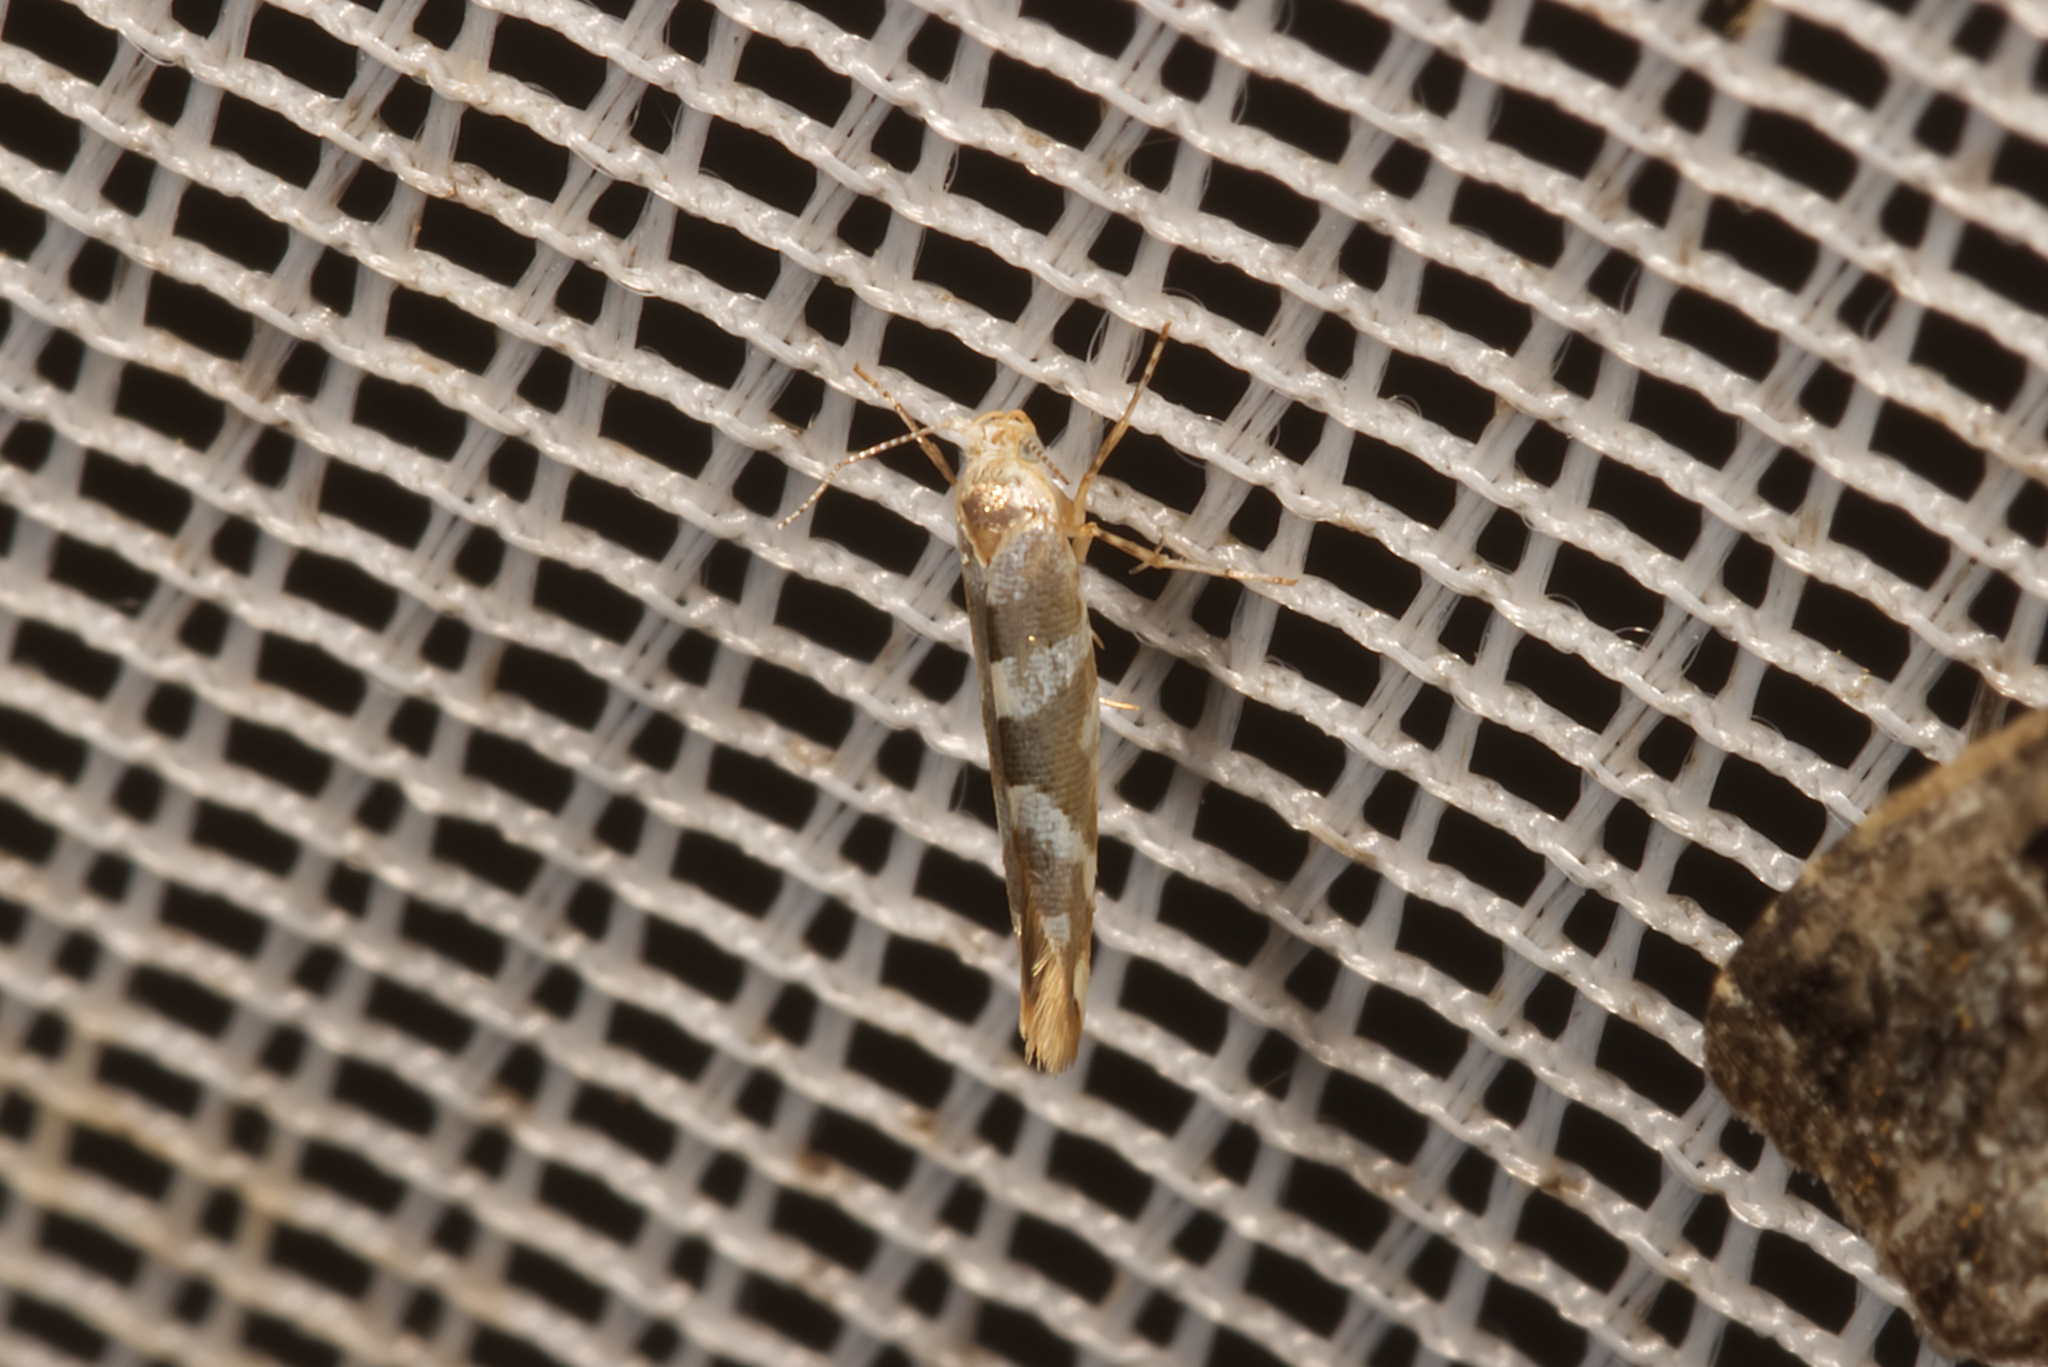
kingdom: Animalia
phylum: Arthropoda
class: Insecta
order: Lepidoptera
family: Argyresthiidae
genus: Argyresthia
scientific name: Argyresthia goedartella
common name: Golden argent
